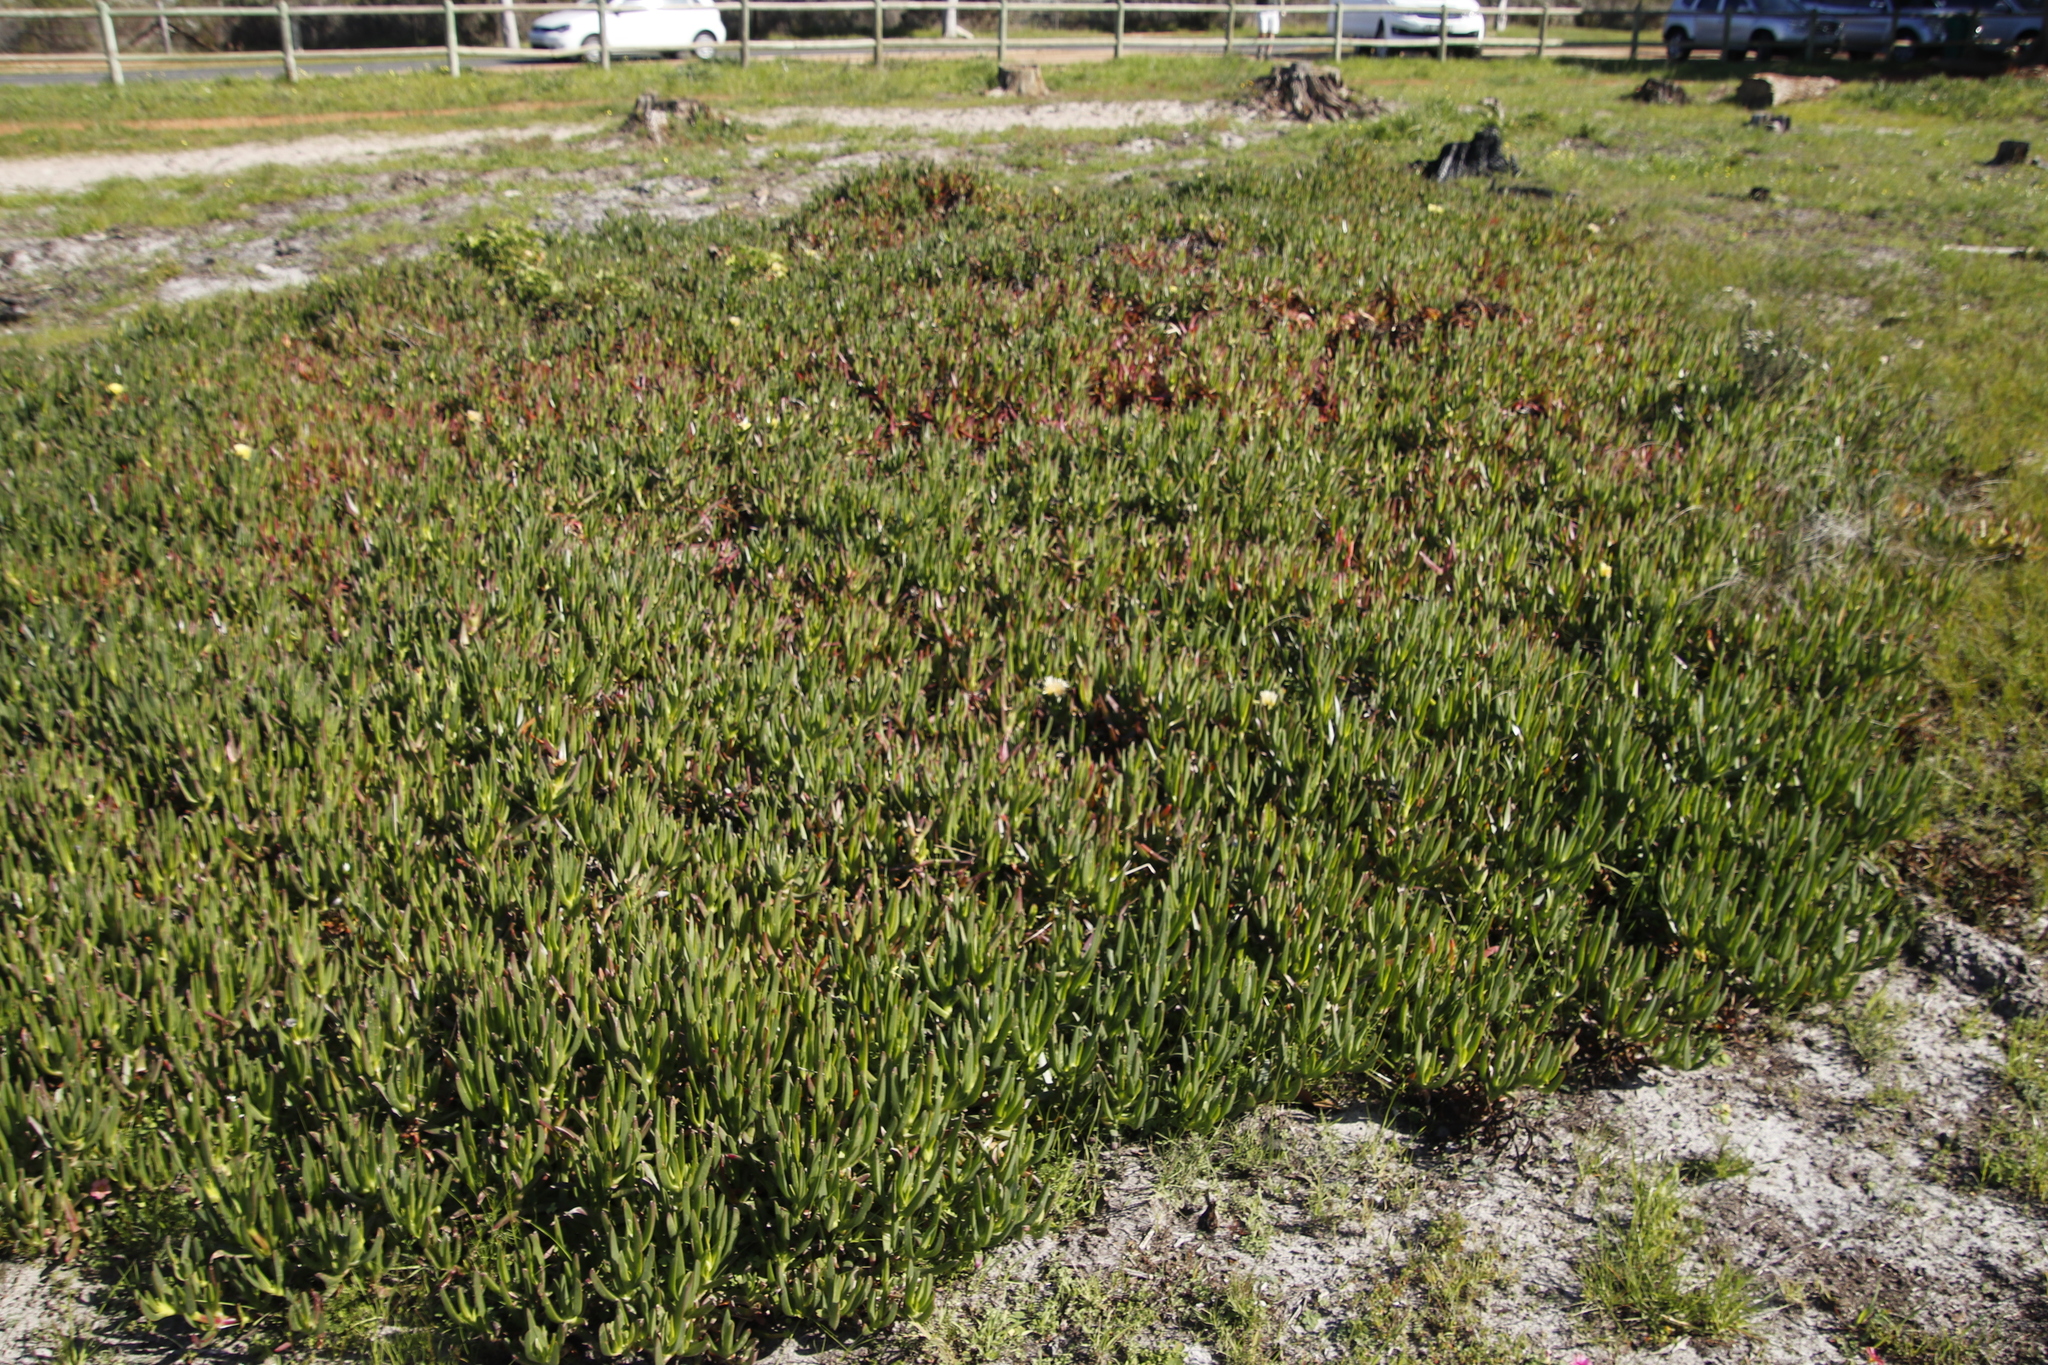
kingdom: Plantae
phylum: Tracheophyta
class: Magnoliopsida
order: Caryophyllales
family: Aizoaceae
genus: Carpobrotus
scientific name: Carpobrotus edulis
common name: Hottentot-fig
